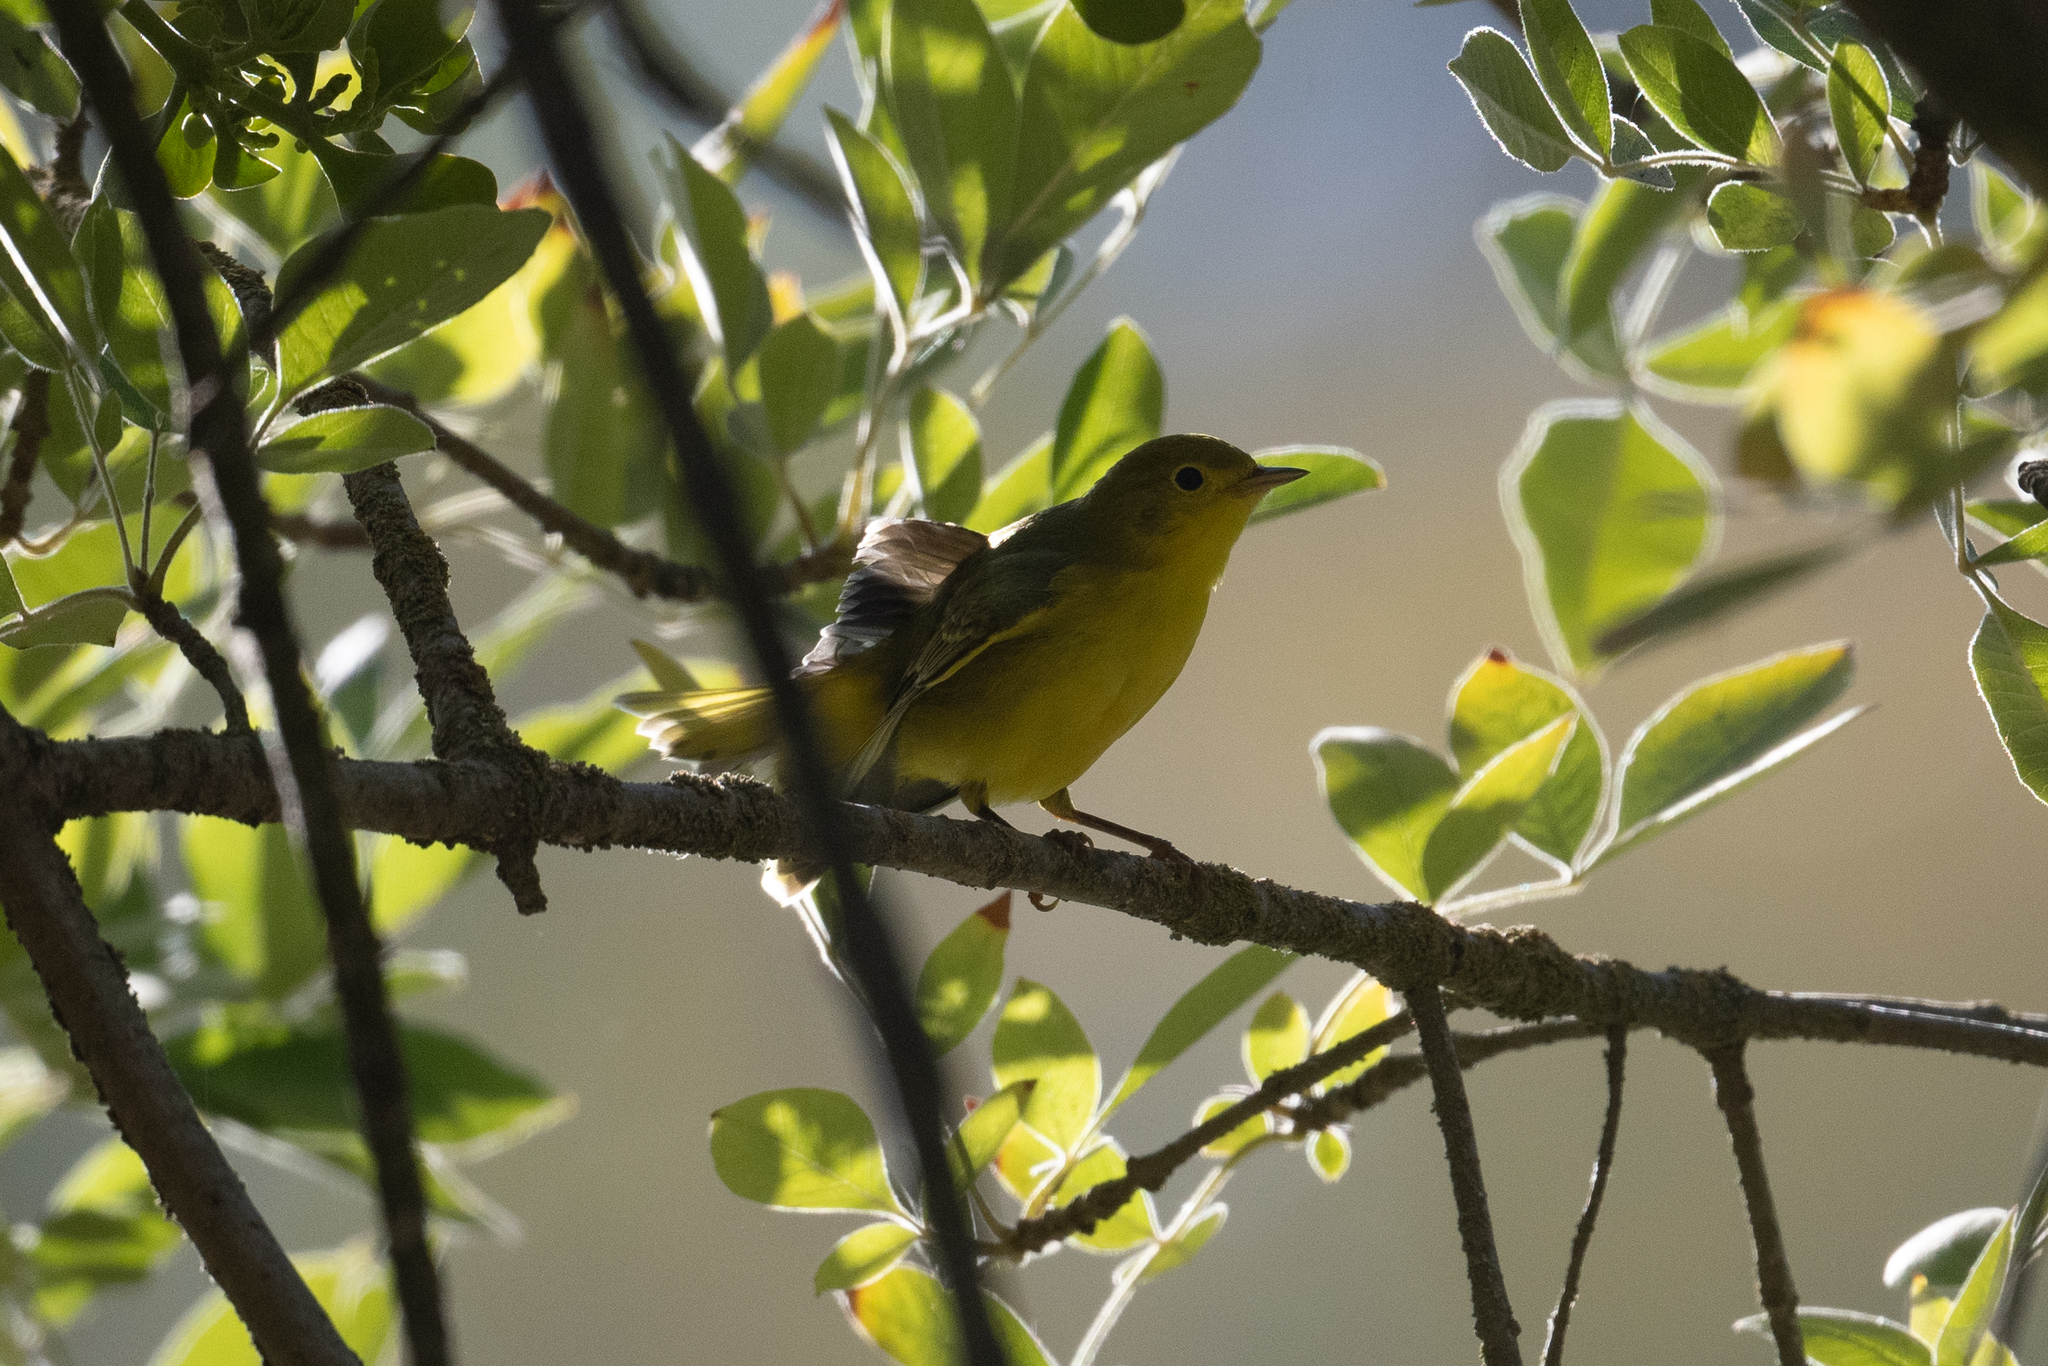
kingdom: Animalia
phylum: Chordata
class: Aves
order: Passeriformes
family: Parulidae
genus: Setophaga
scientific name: Setophaga petechia
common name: Yellow warbler
